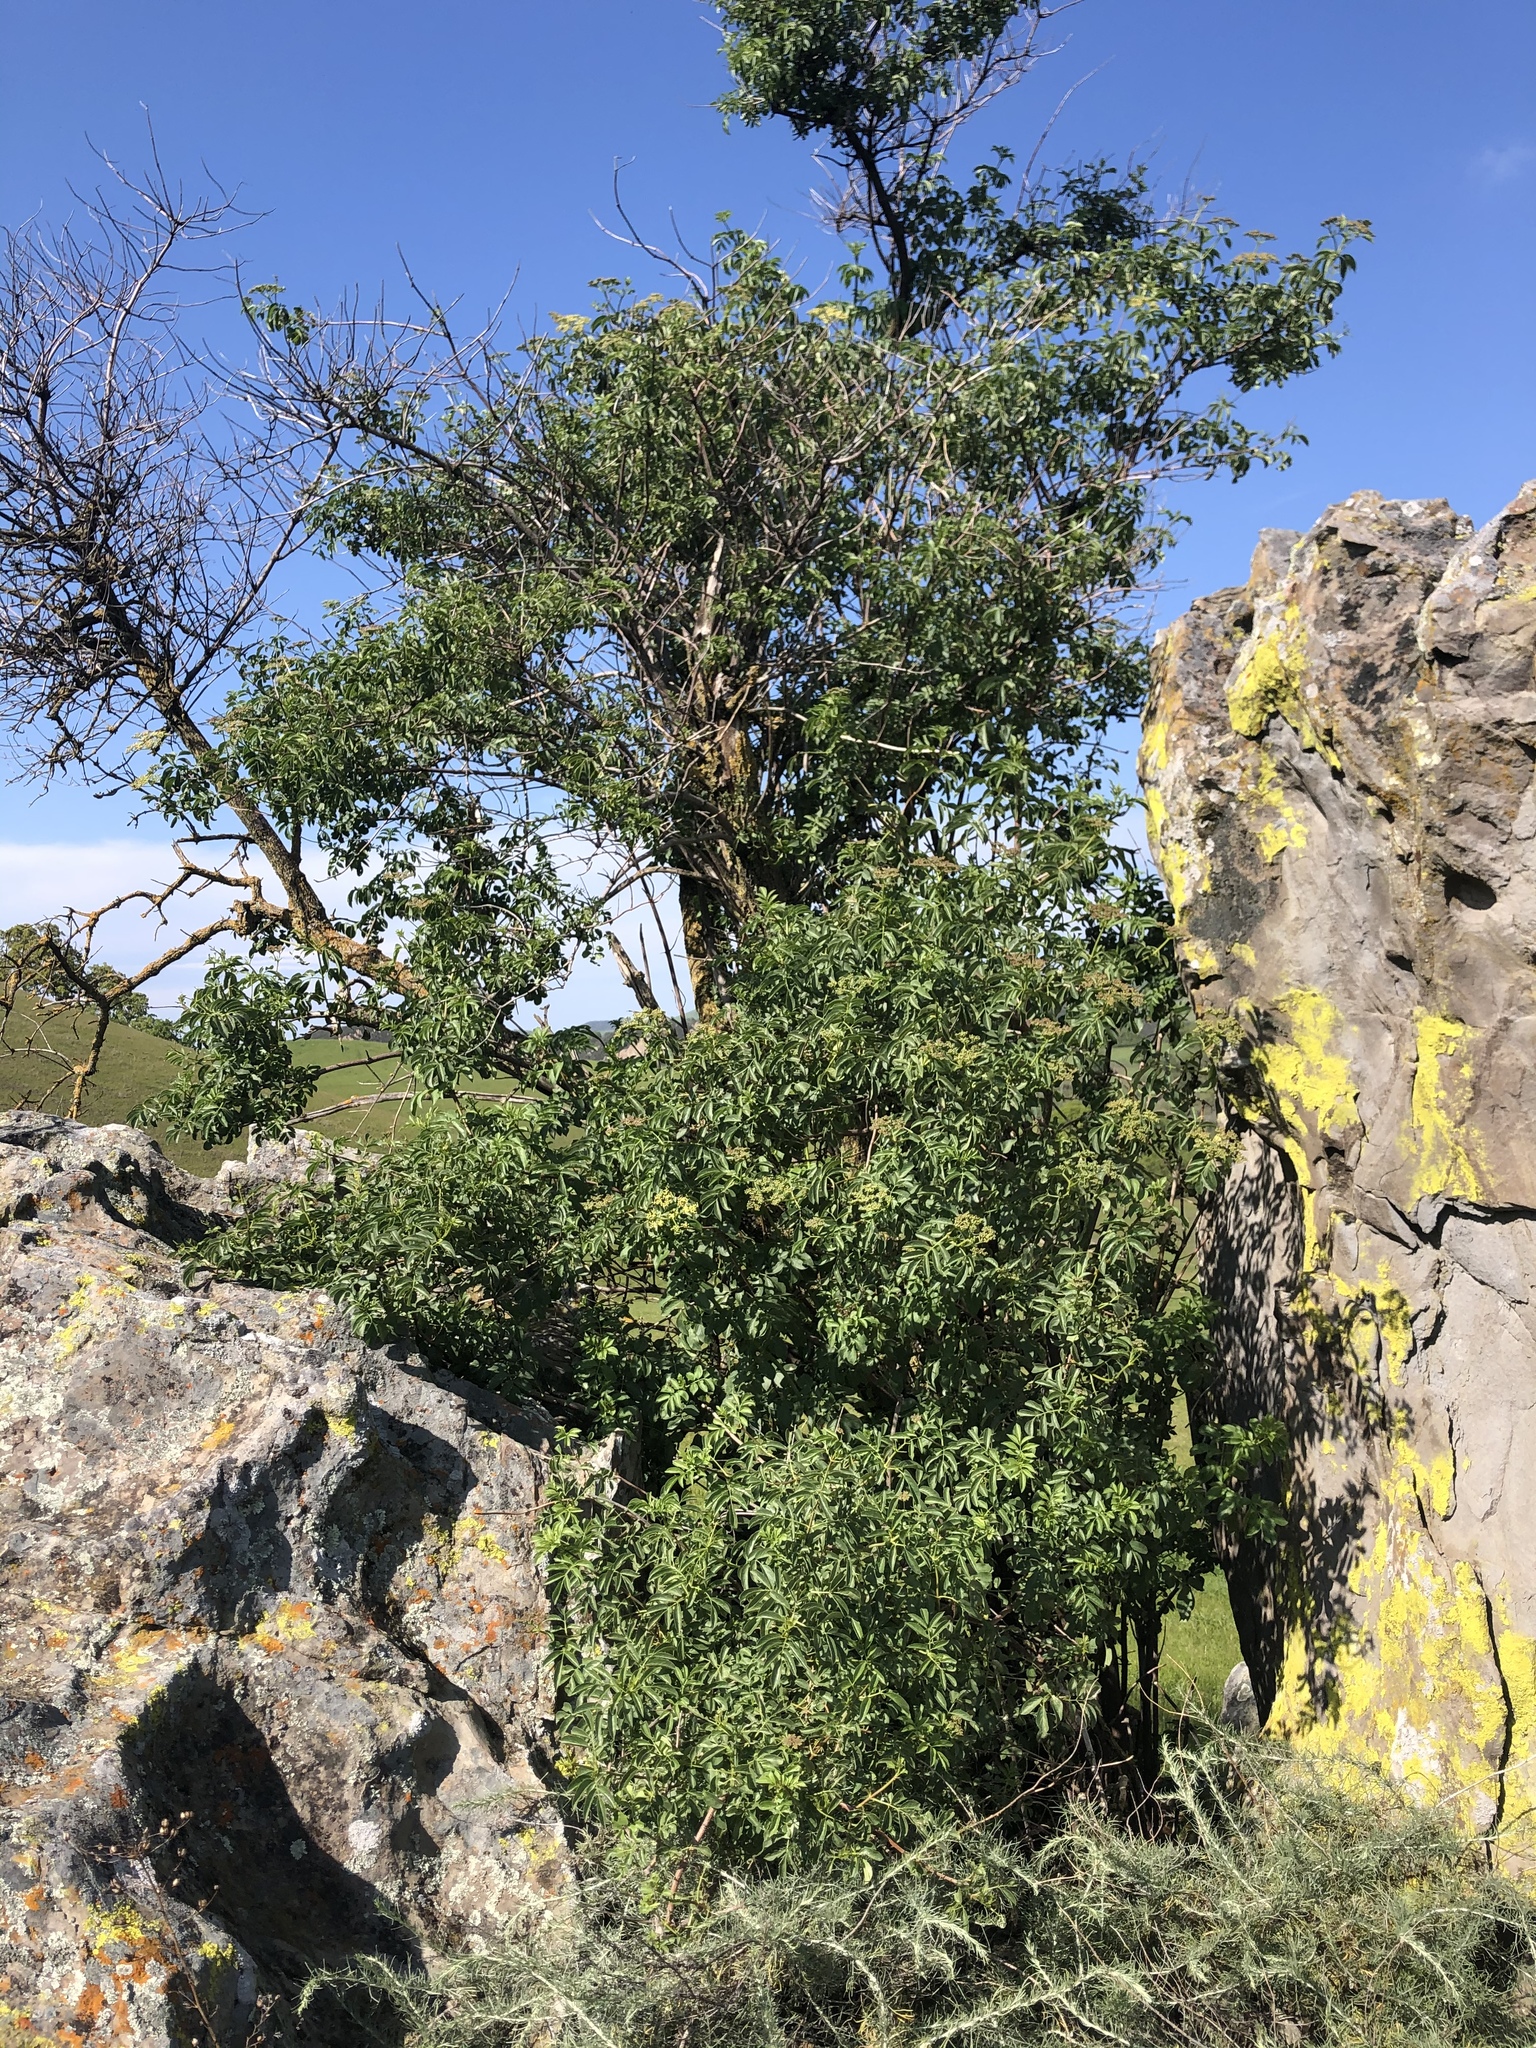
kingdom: Plantae
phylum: Tracheophyta
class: Magnoliopsida
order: Dipsacales
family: Viburnaceae
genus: Sambucus
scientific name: Sambucus cerulea
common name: Blue elder
